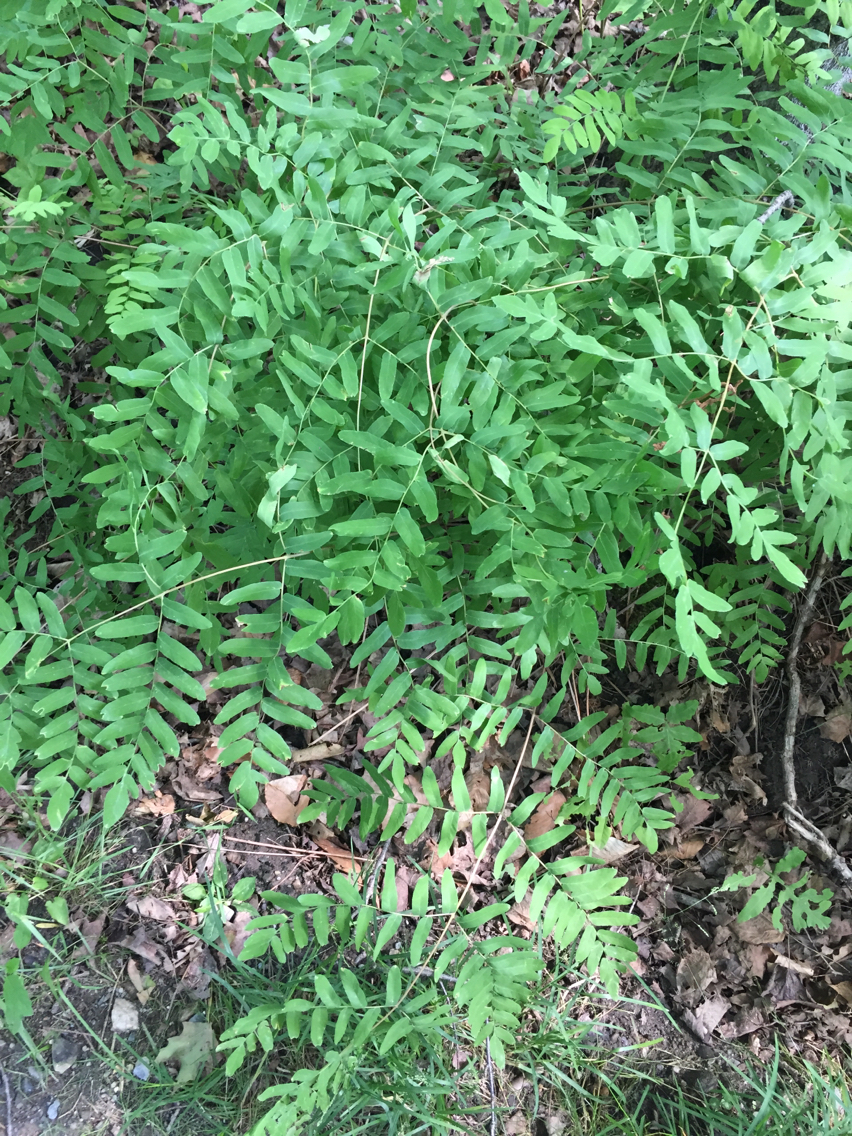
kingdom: Plantae
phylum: Tracheophyta
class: Polypodiopsida
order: Osmundales
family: Osmundaceae
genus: Osmunda
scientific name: Osmunda spectabilis
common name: American royal fern
